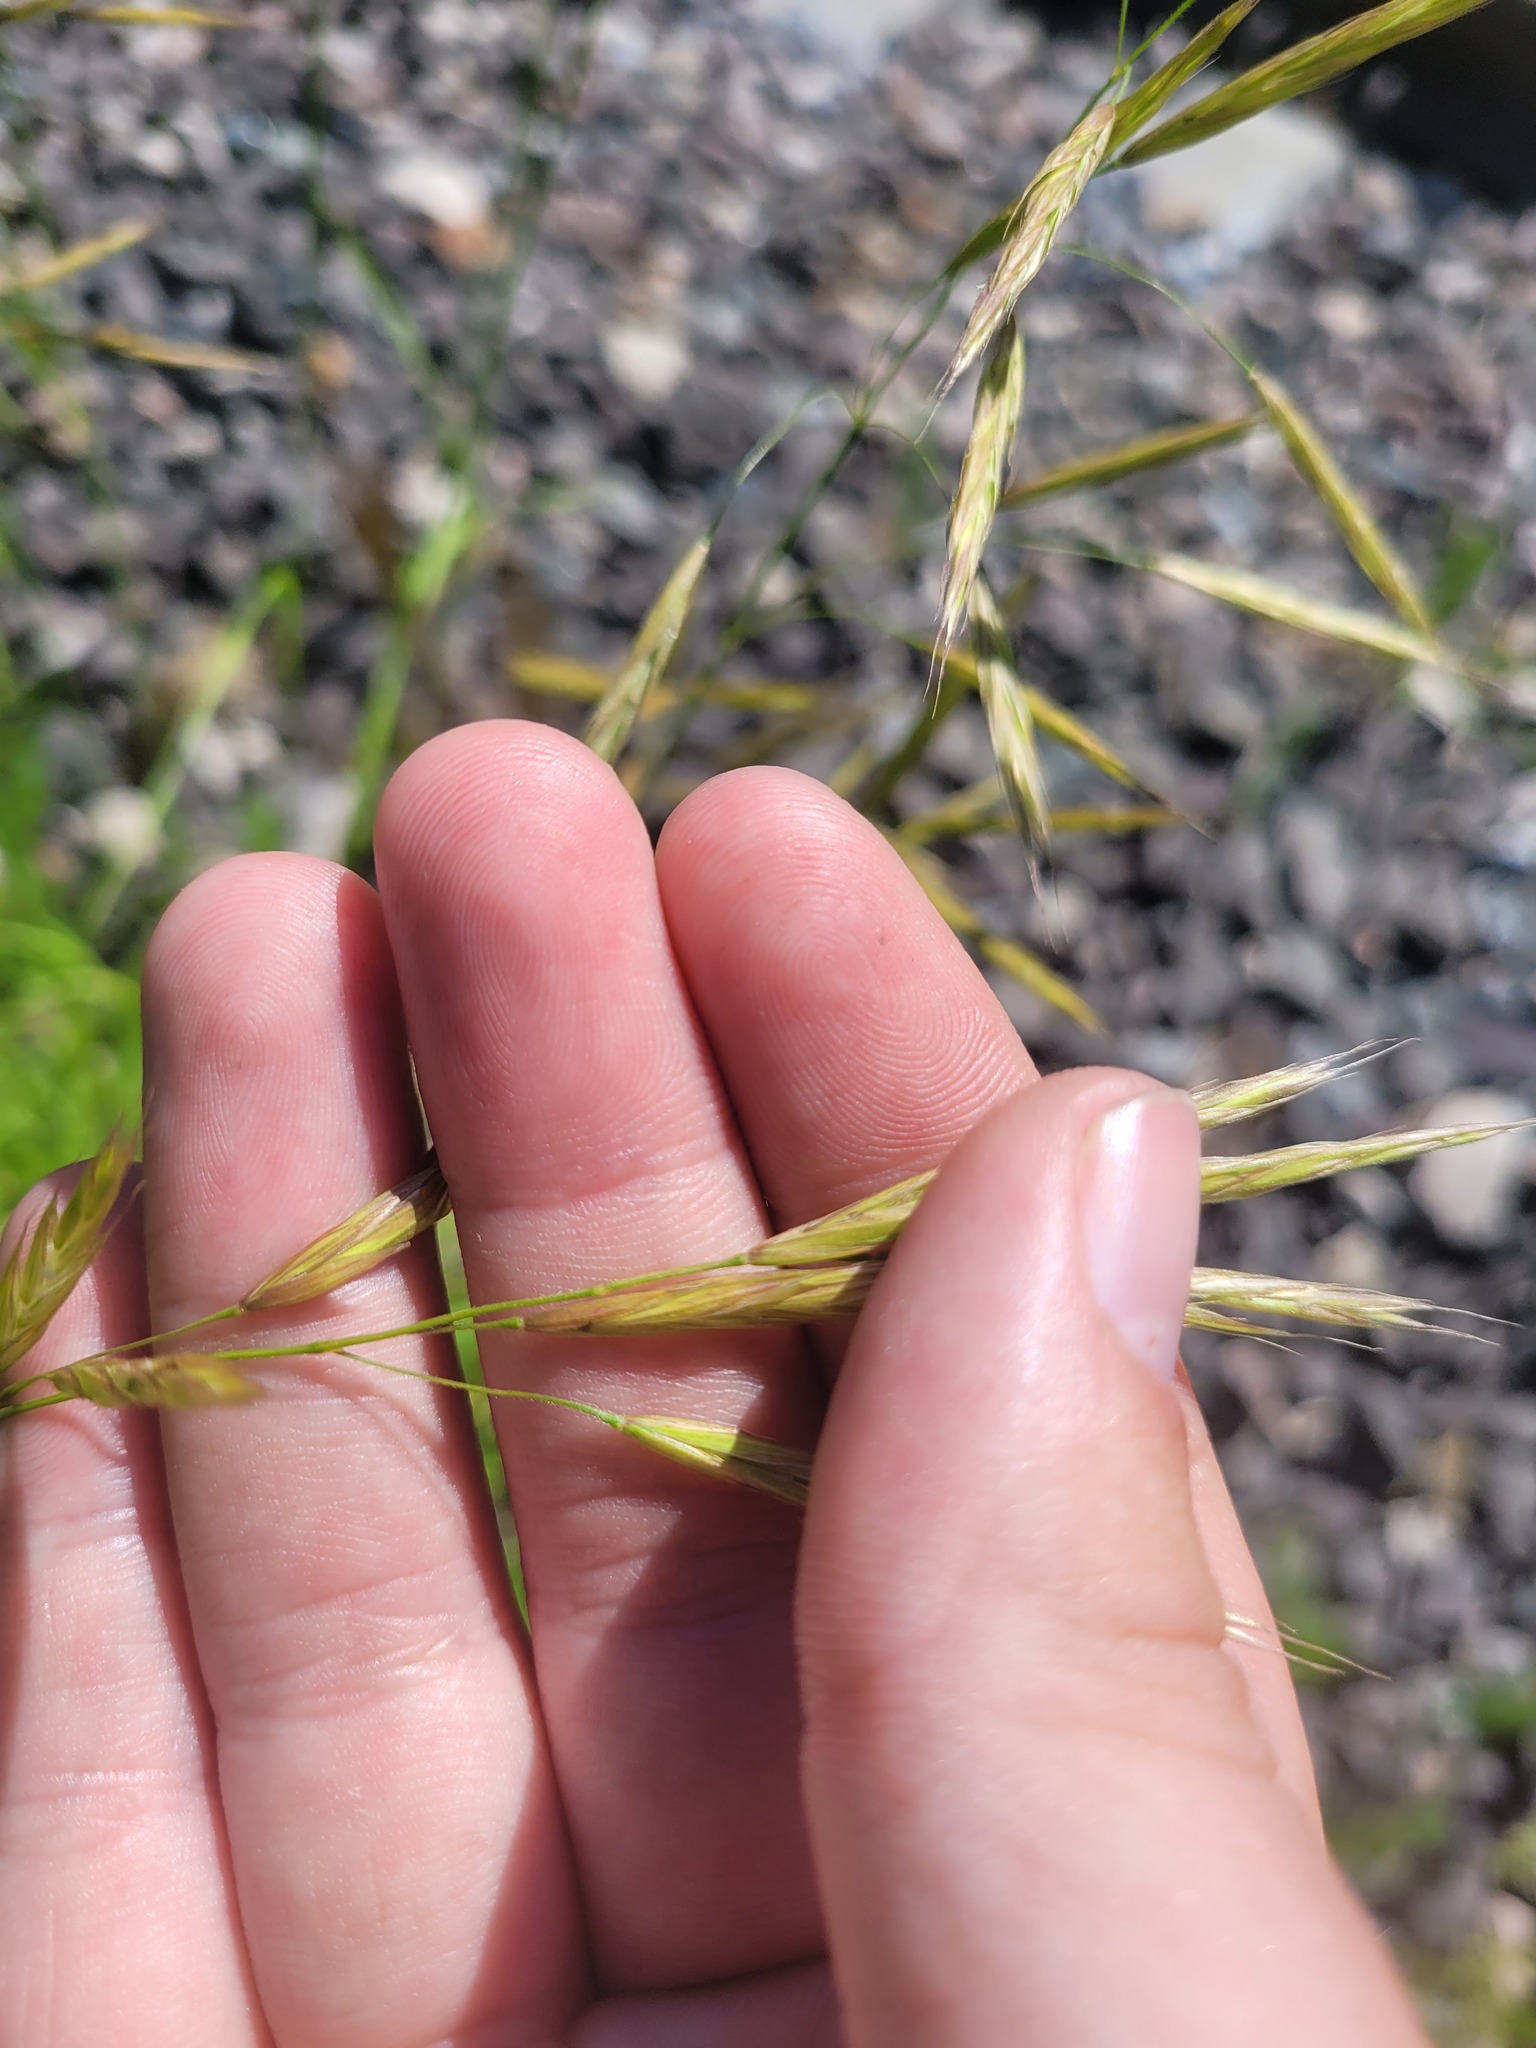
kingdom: Plantae
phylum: Tracheophyta
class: Liliopsida
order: Poales
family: Poaceae
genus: Bromus
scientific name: Bromus riparius
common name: Meadow brome
